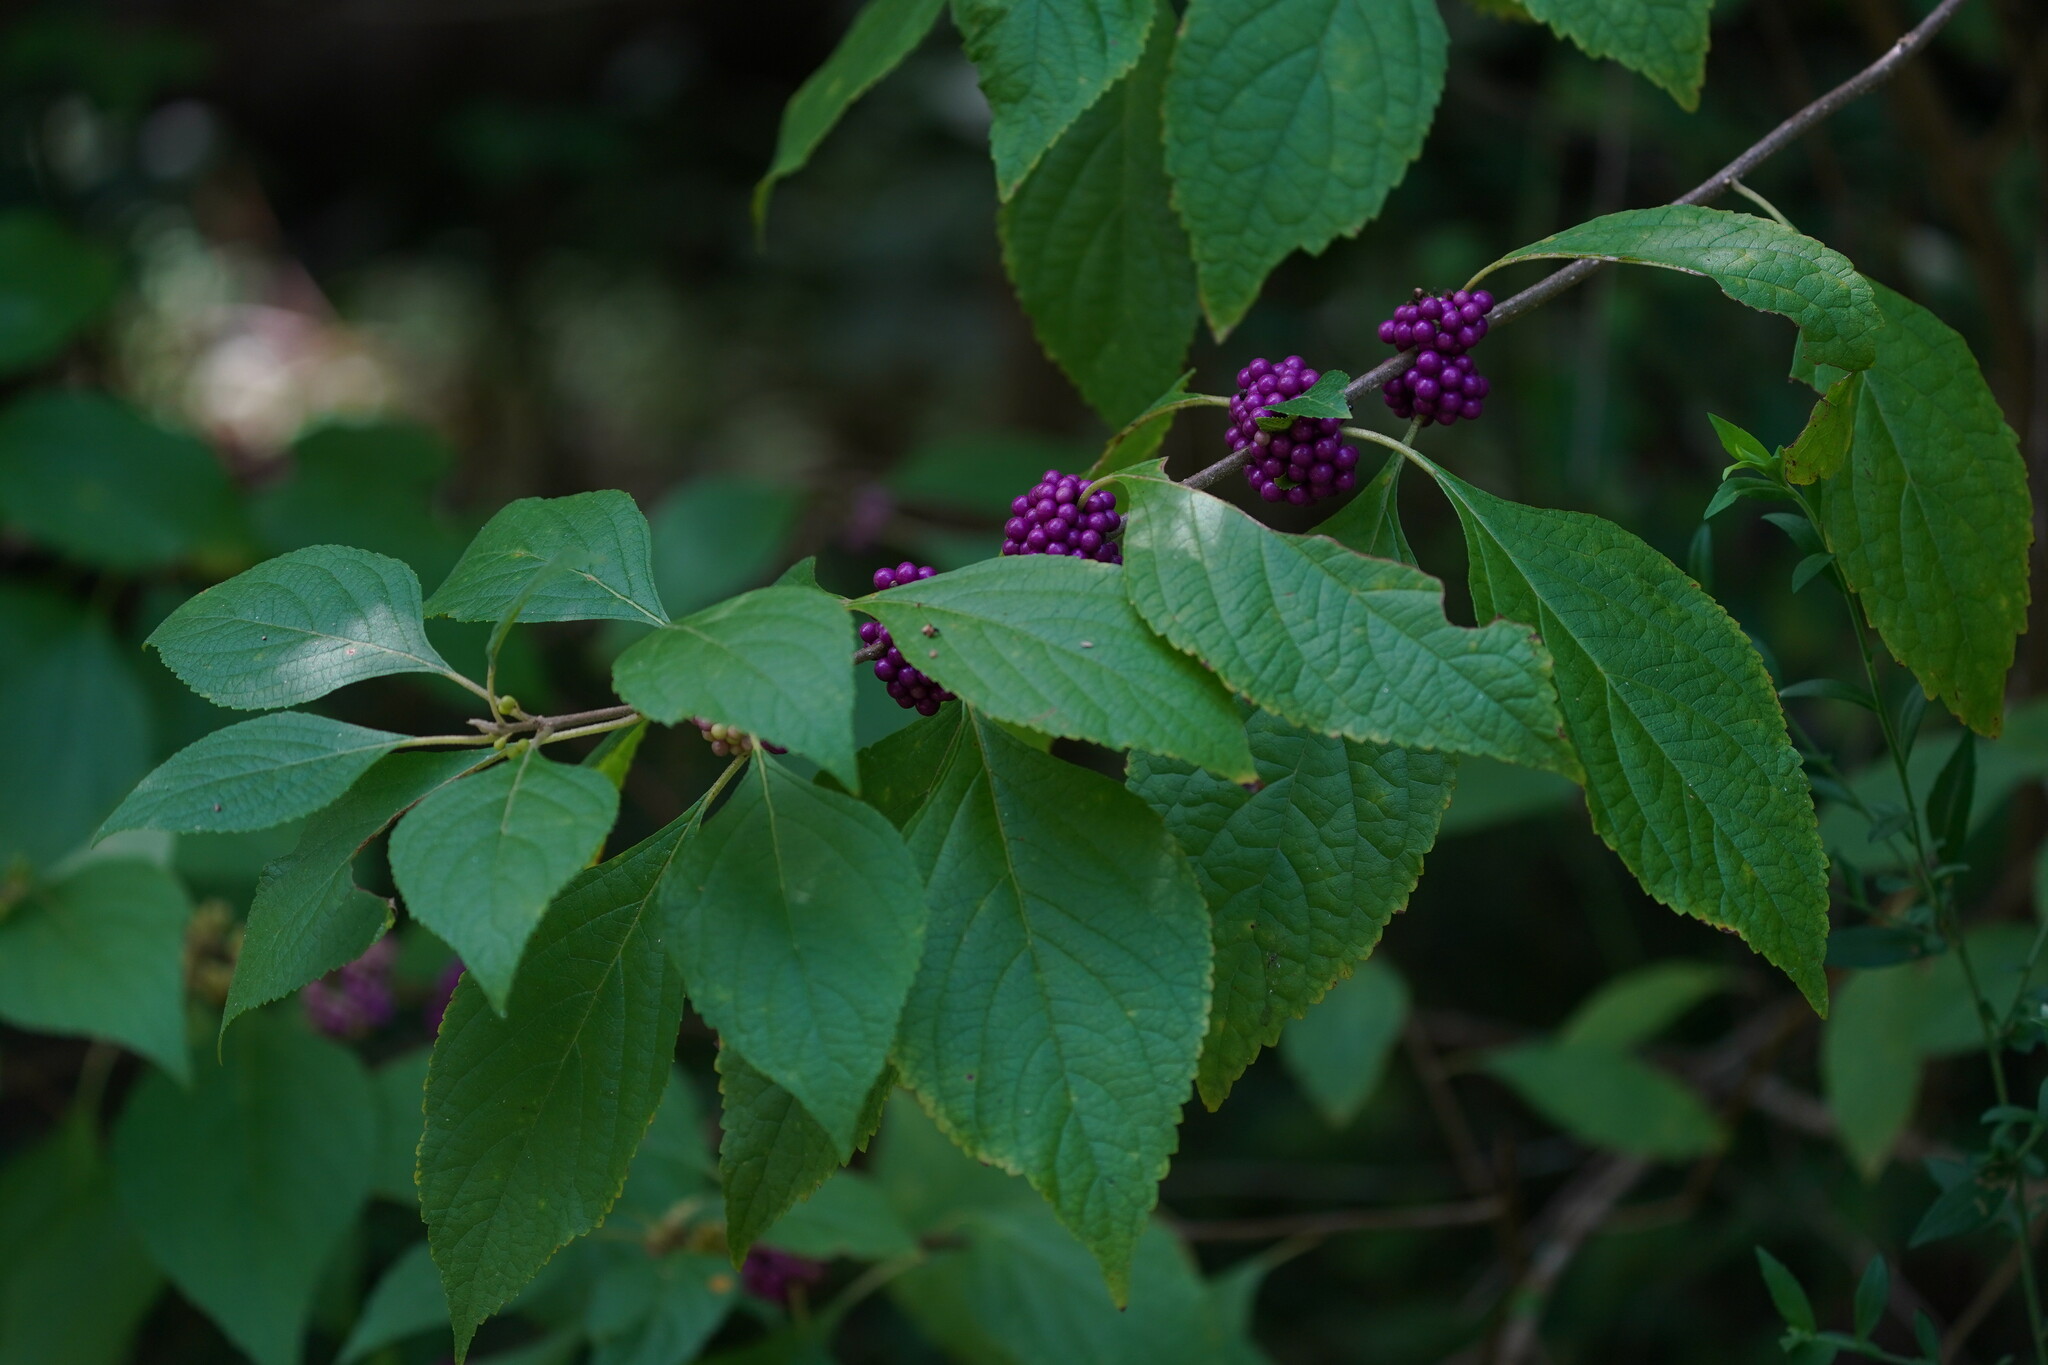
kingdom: Plantae
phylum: Tracheophyta
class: Magnoliopsida
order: Lamiales
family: Lamiaceae
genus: Callicarpa
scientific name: Callicarpa americana
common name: American beautyberry
